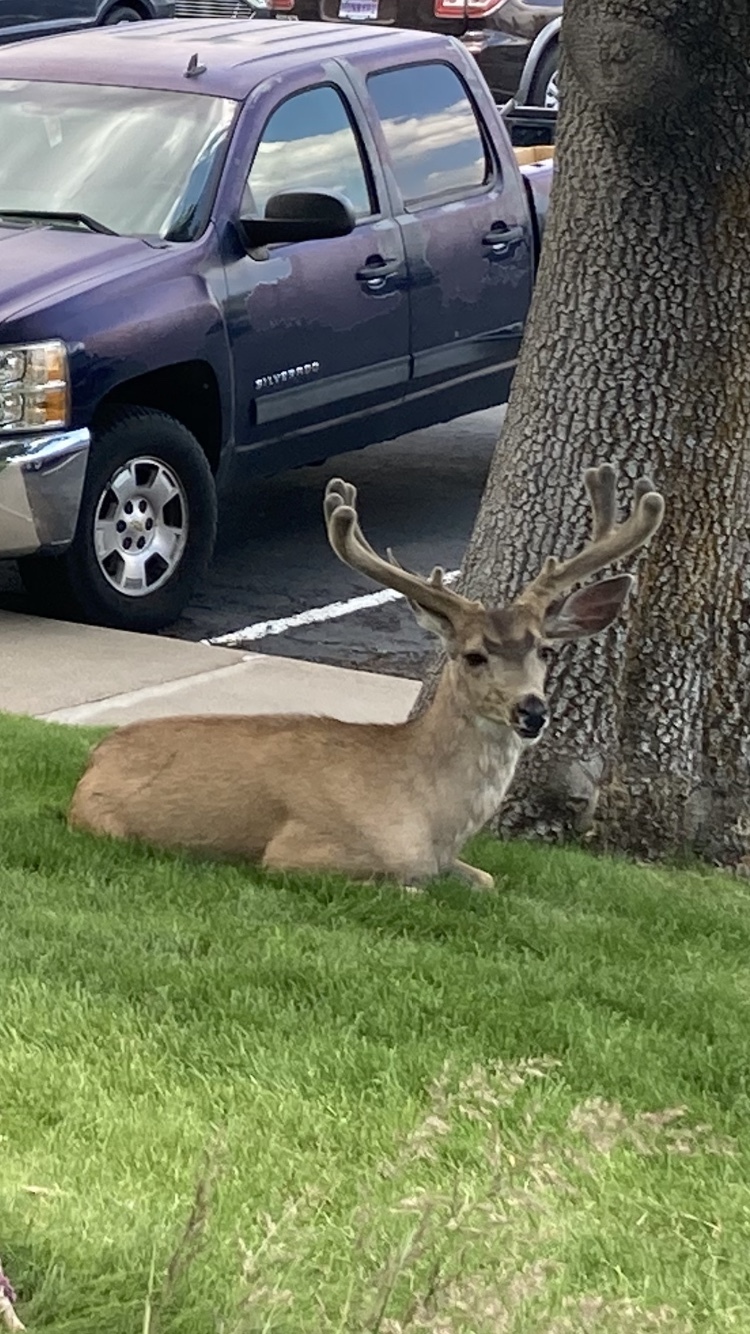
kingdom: Animalia
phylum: Chordata
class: Mammalia
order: Artiodactyla
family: Cervidae
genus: Odocoileus
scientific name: Odocoileus hemionus
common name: Mule deer
